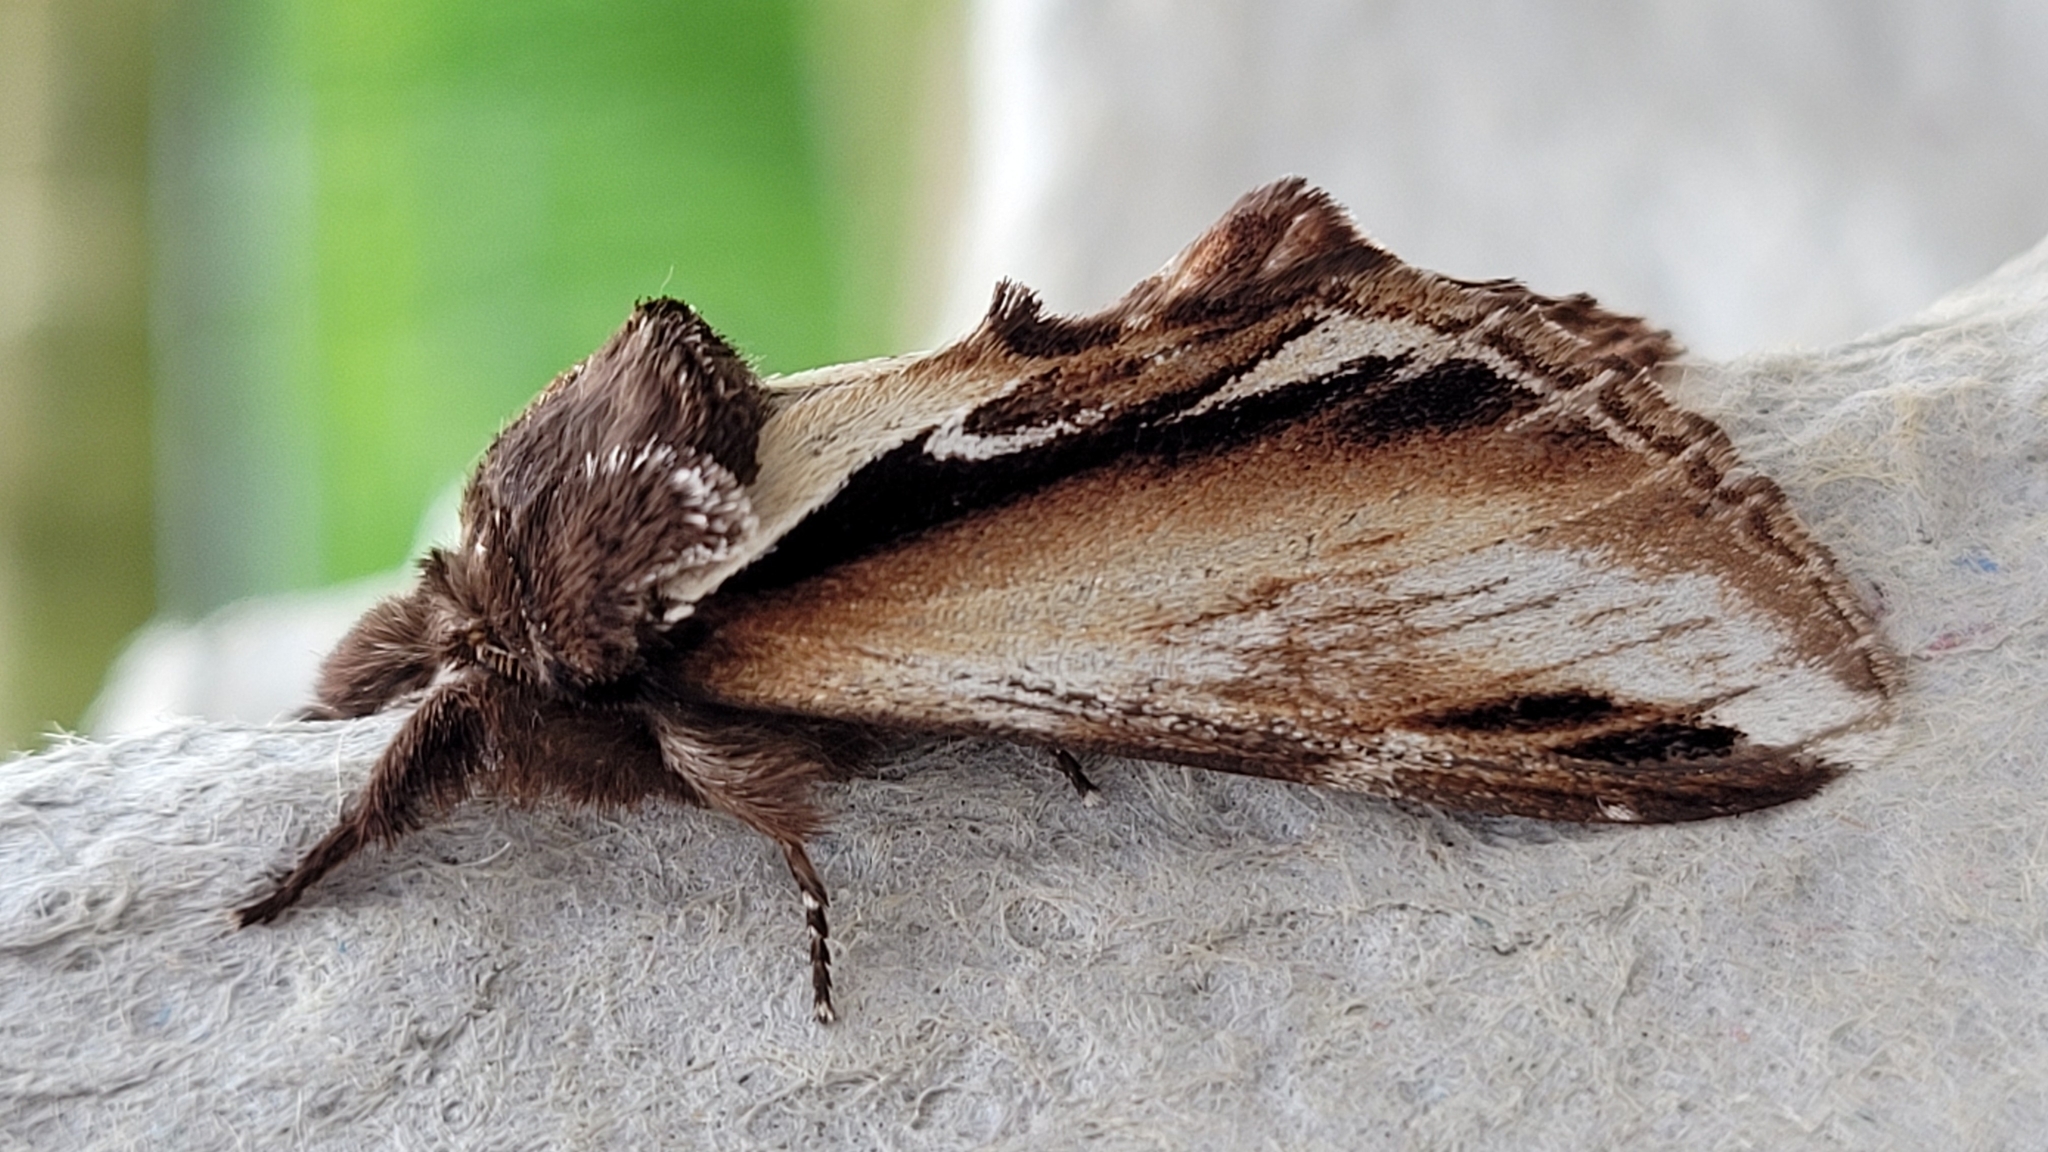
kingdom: Animalia
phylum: Arthropoda
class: Insecta
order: Lepidoptera
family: Notodontidae
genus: Pheosia
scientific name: Pheosia gnoma
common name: Lesser swallow prominent
